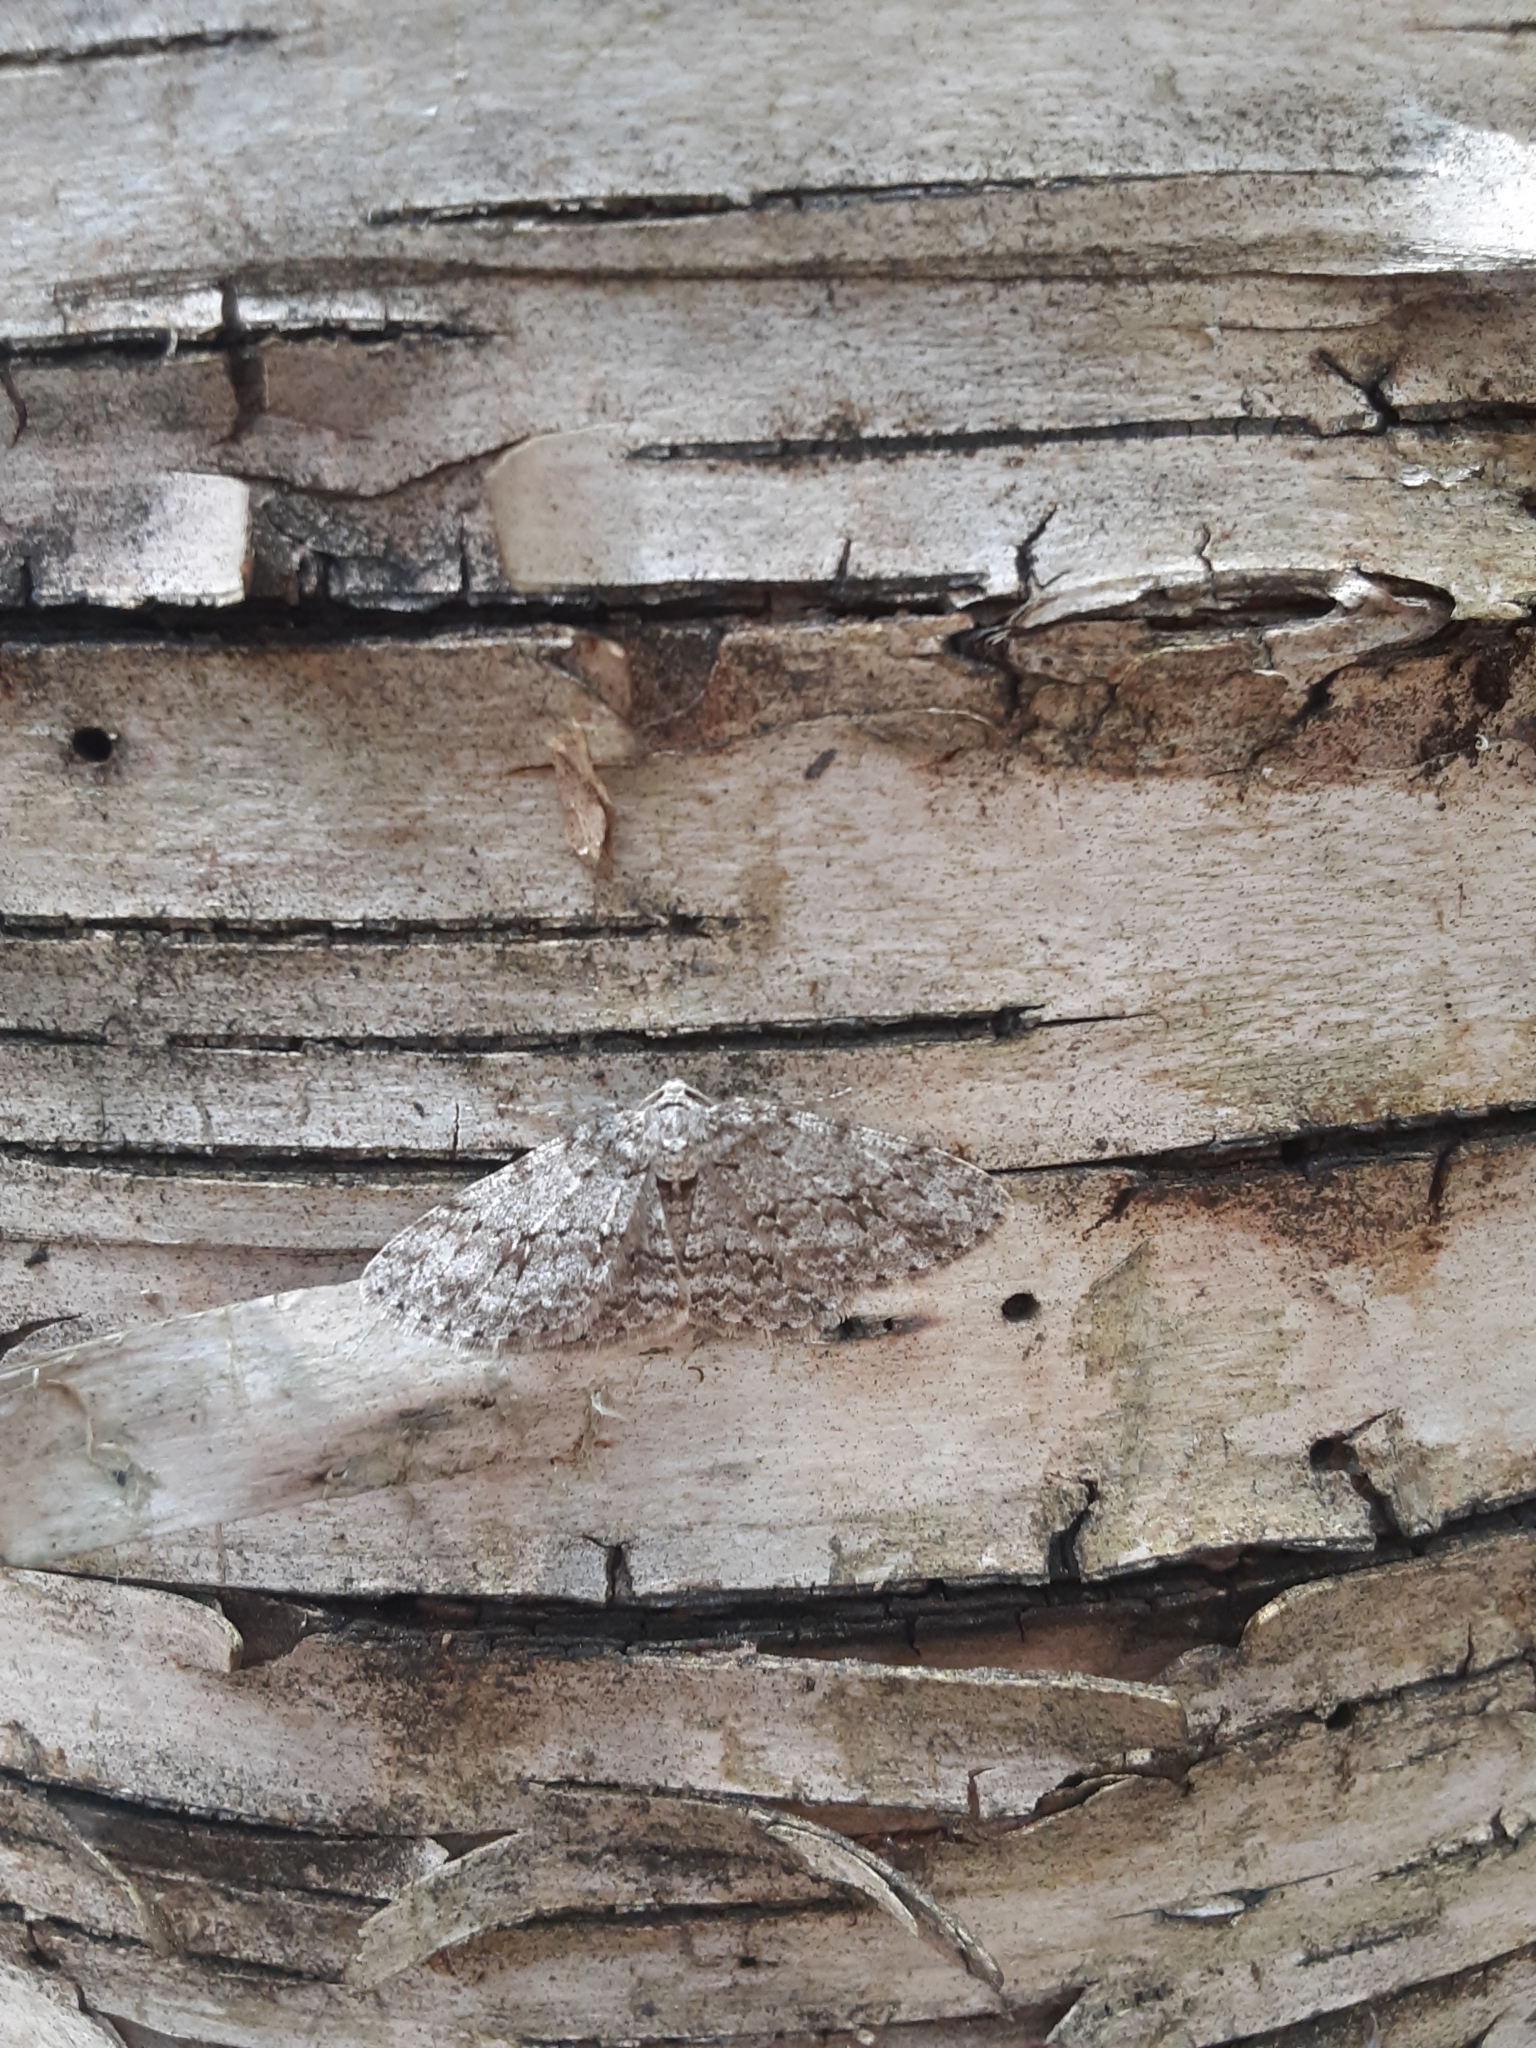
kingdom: Animalia
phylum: Arthropoda
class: Insecta
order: Lepidoptera
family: Geometridae
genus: Ectropis
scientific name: Ectropis crepuscularia
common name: Engrailed
